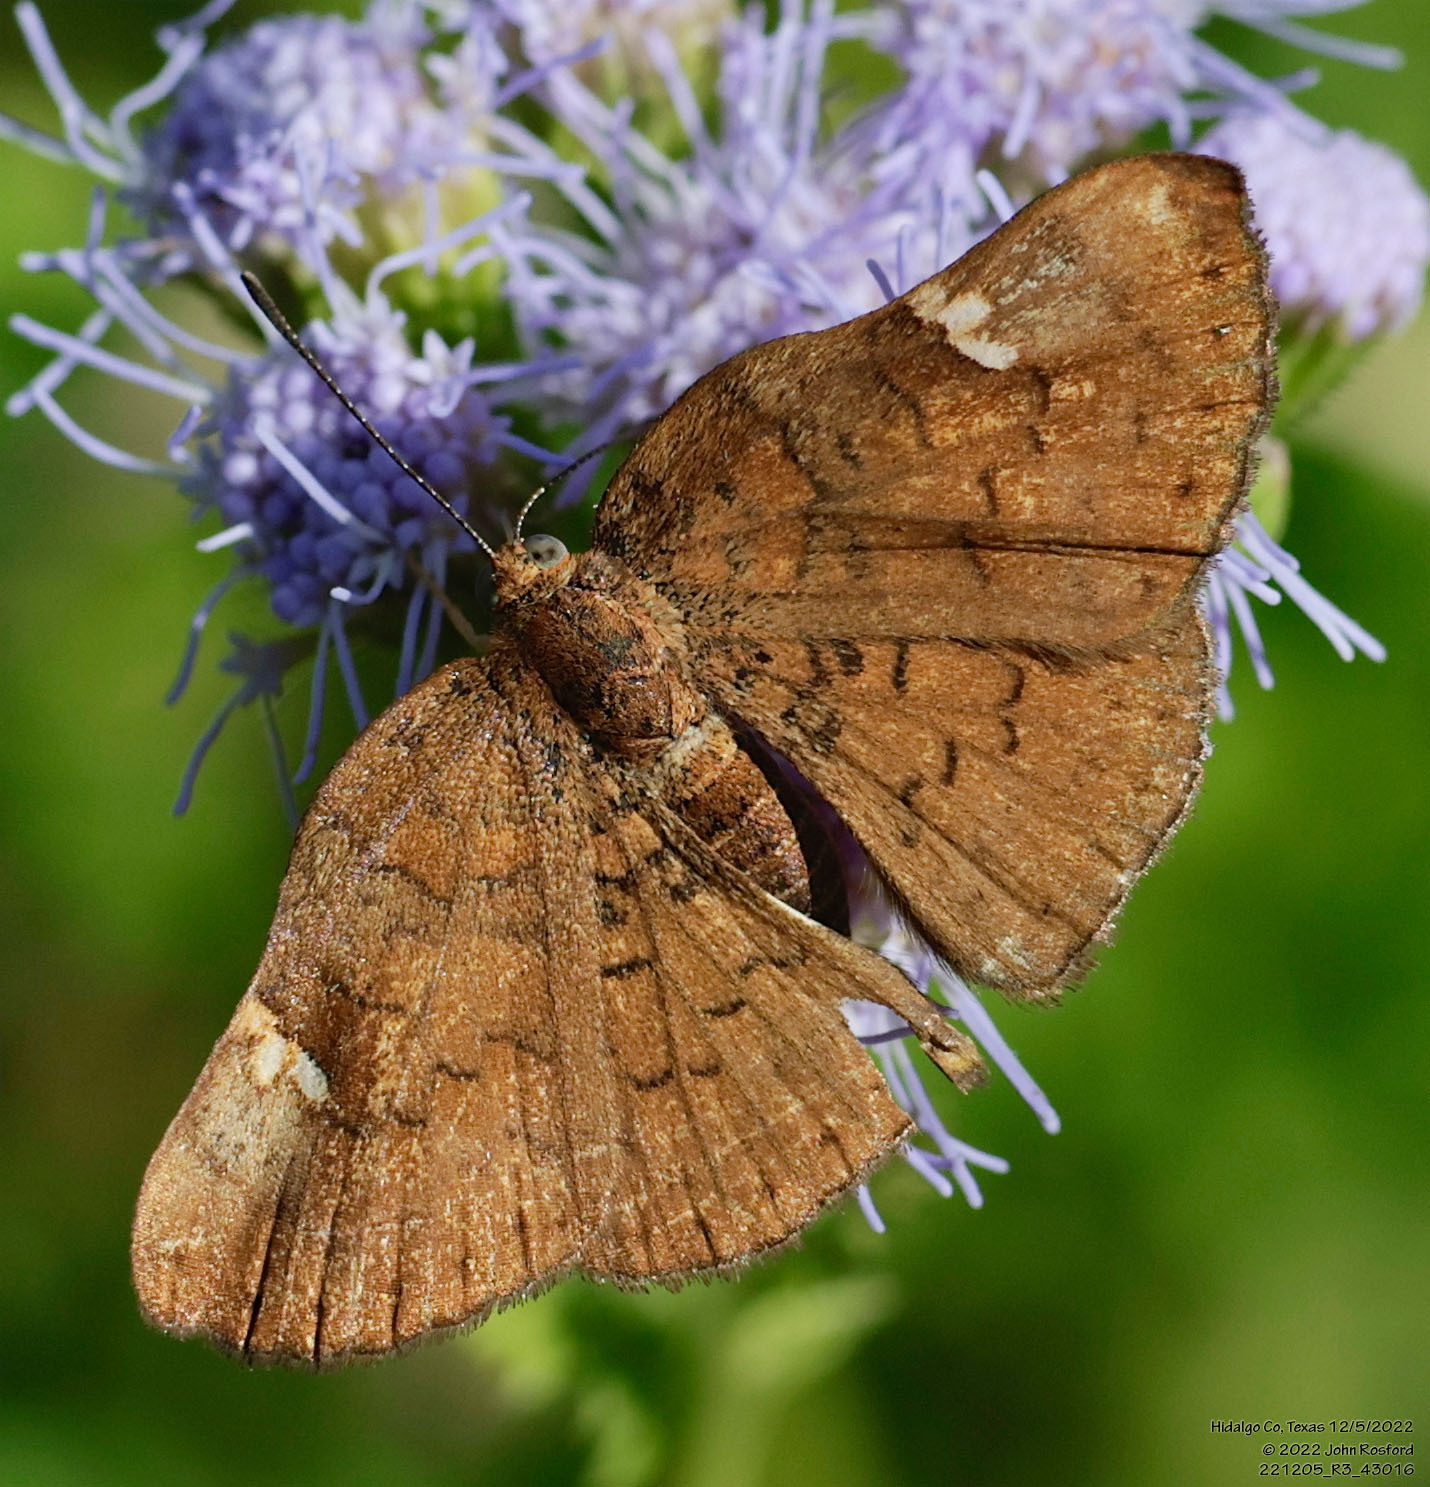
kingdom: Animalia
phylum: Arthropoda
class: Insecta
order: Lepidoptera
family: Riodinidae
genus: Curvie
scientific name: Curvie emesia
